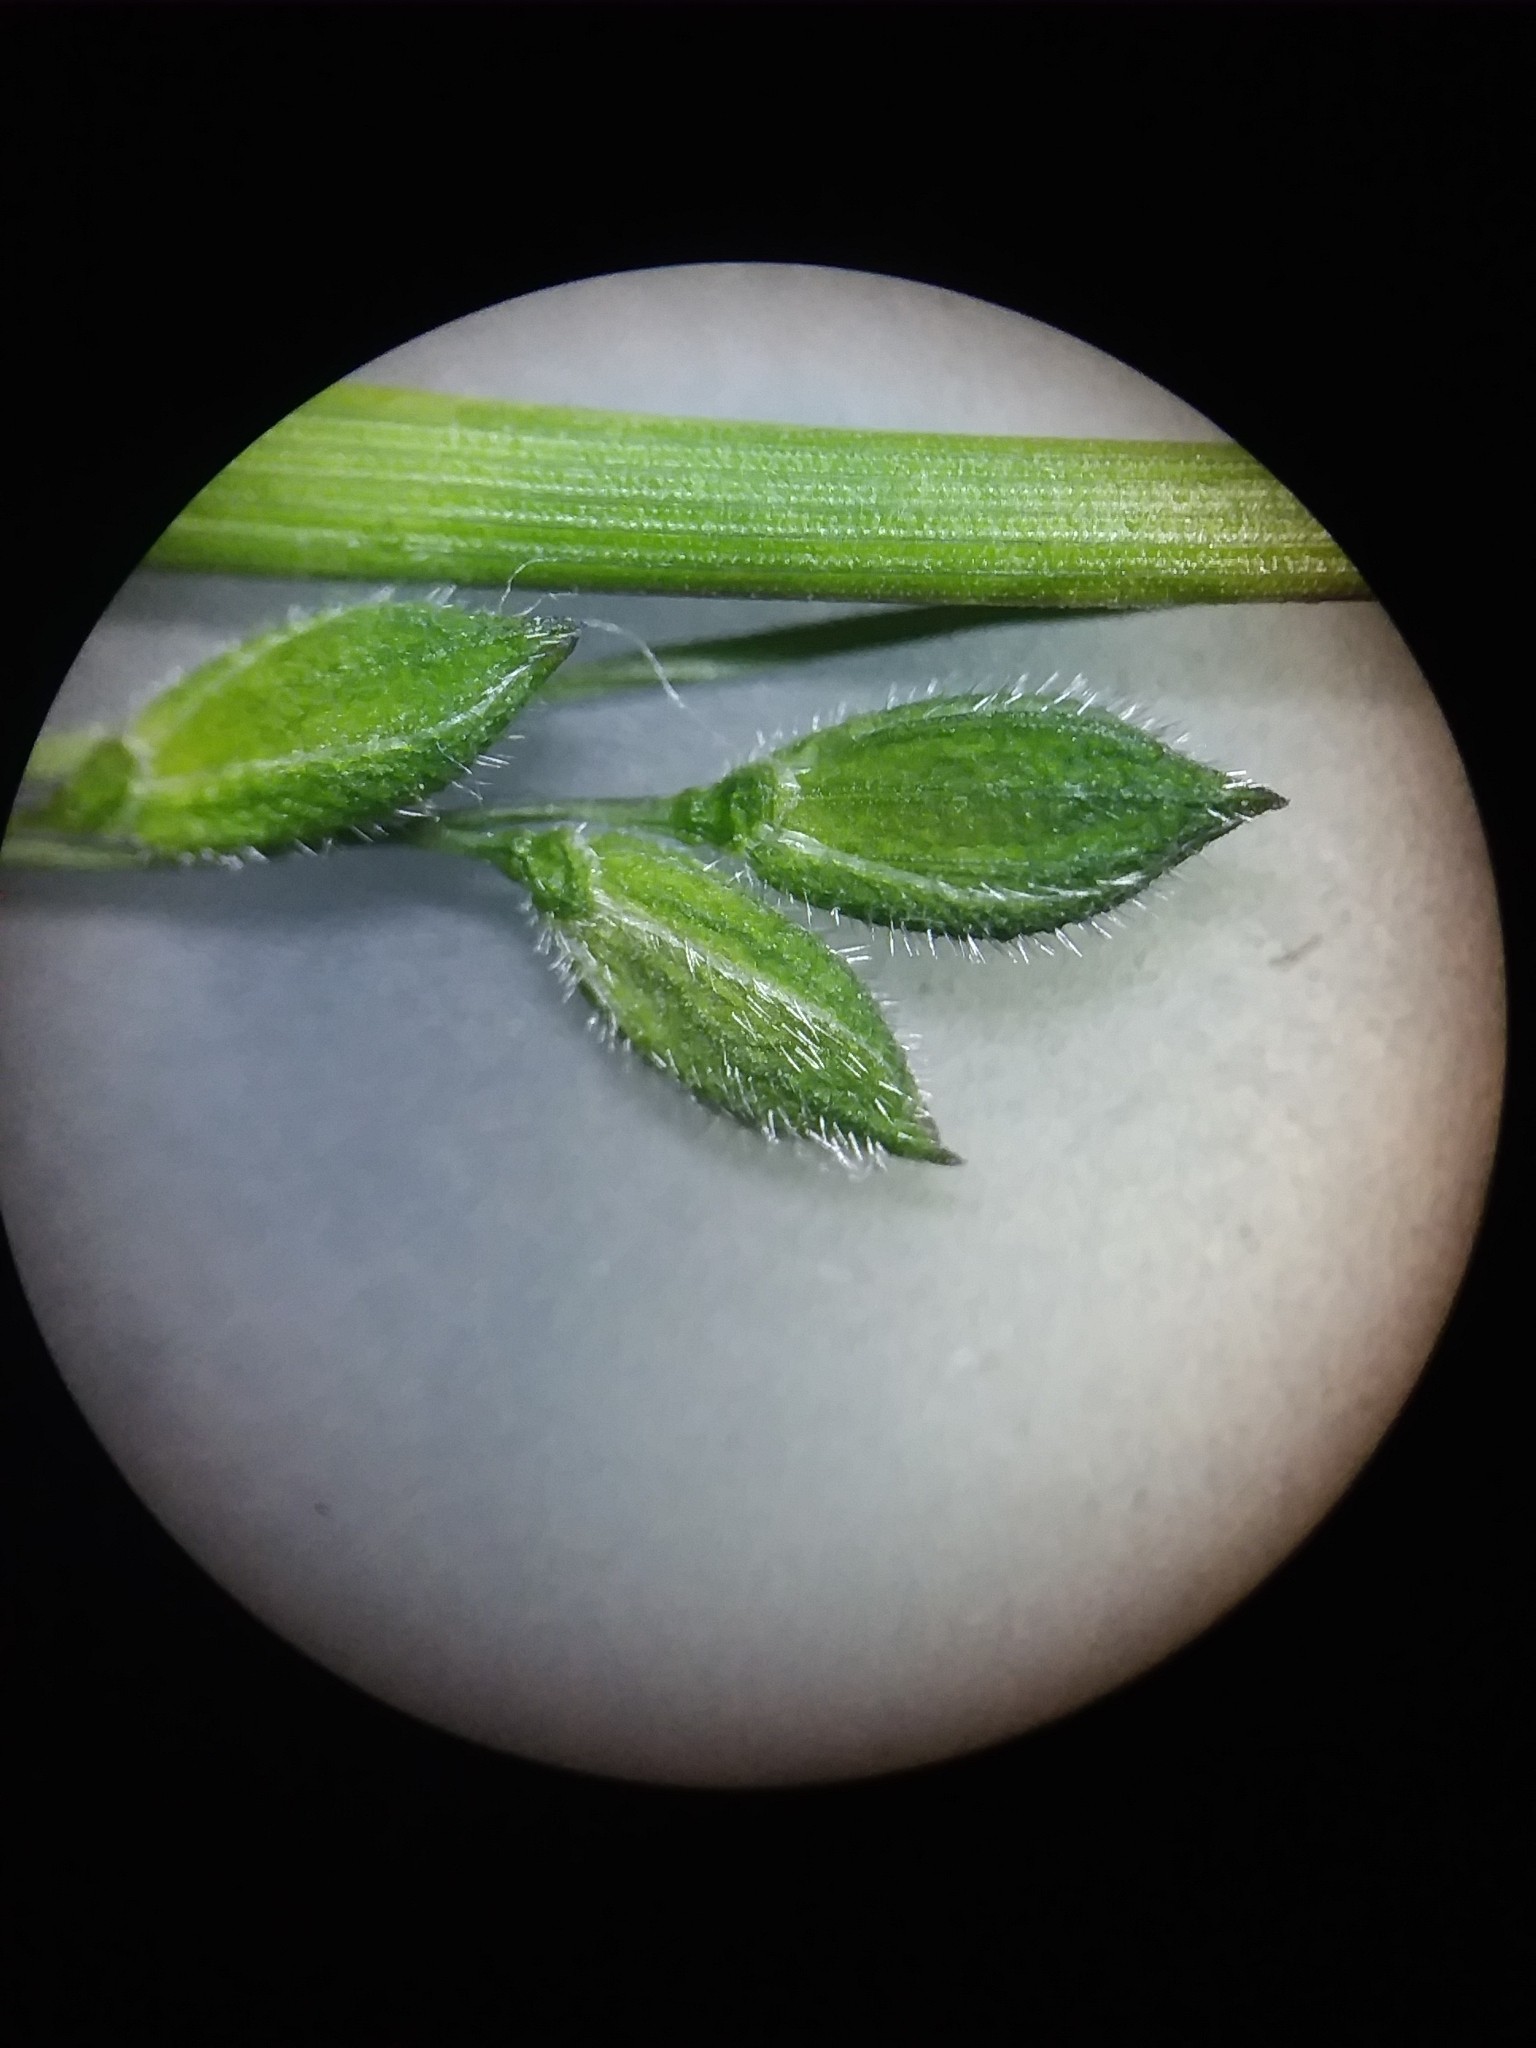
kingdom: Plantae
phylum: Tracheophyta
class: Liliopsida
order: Poales
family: Poaceae
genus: Kellochloa
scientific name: Kellochloa brachyantha
